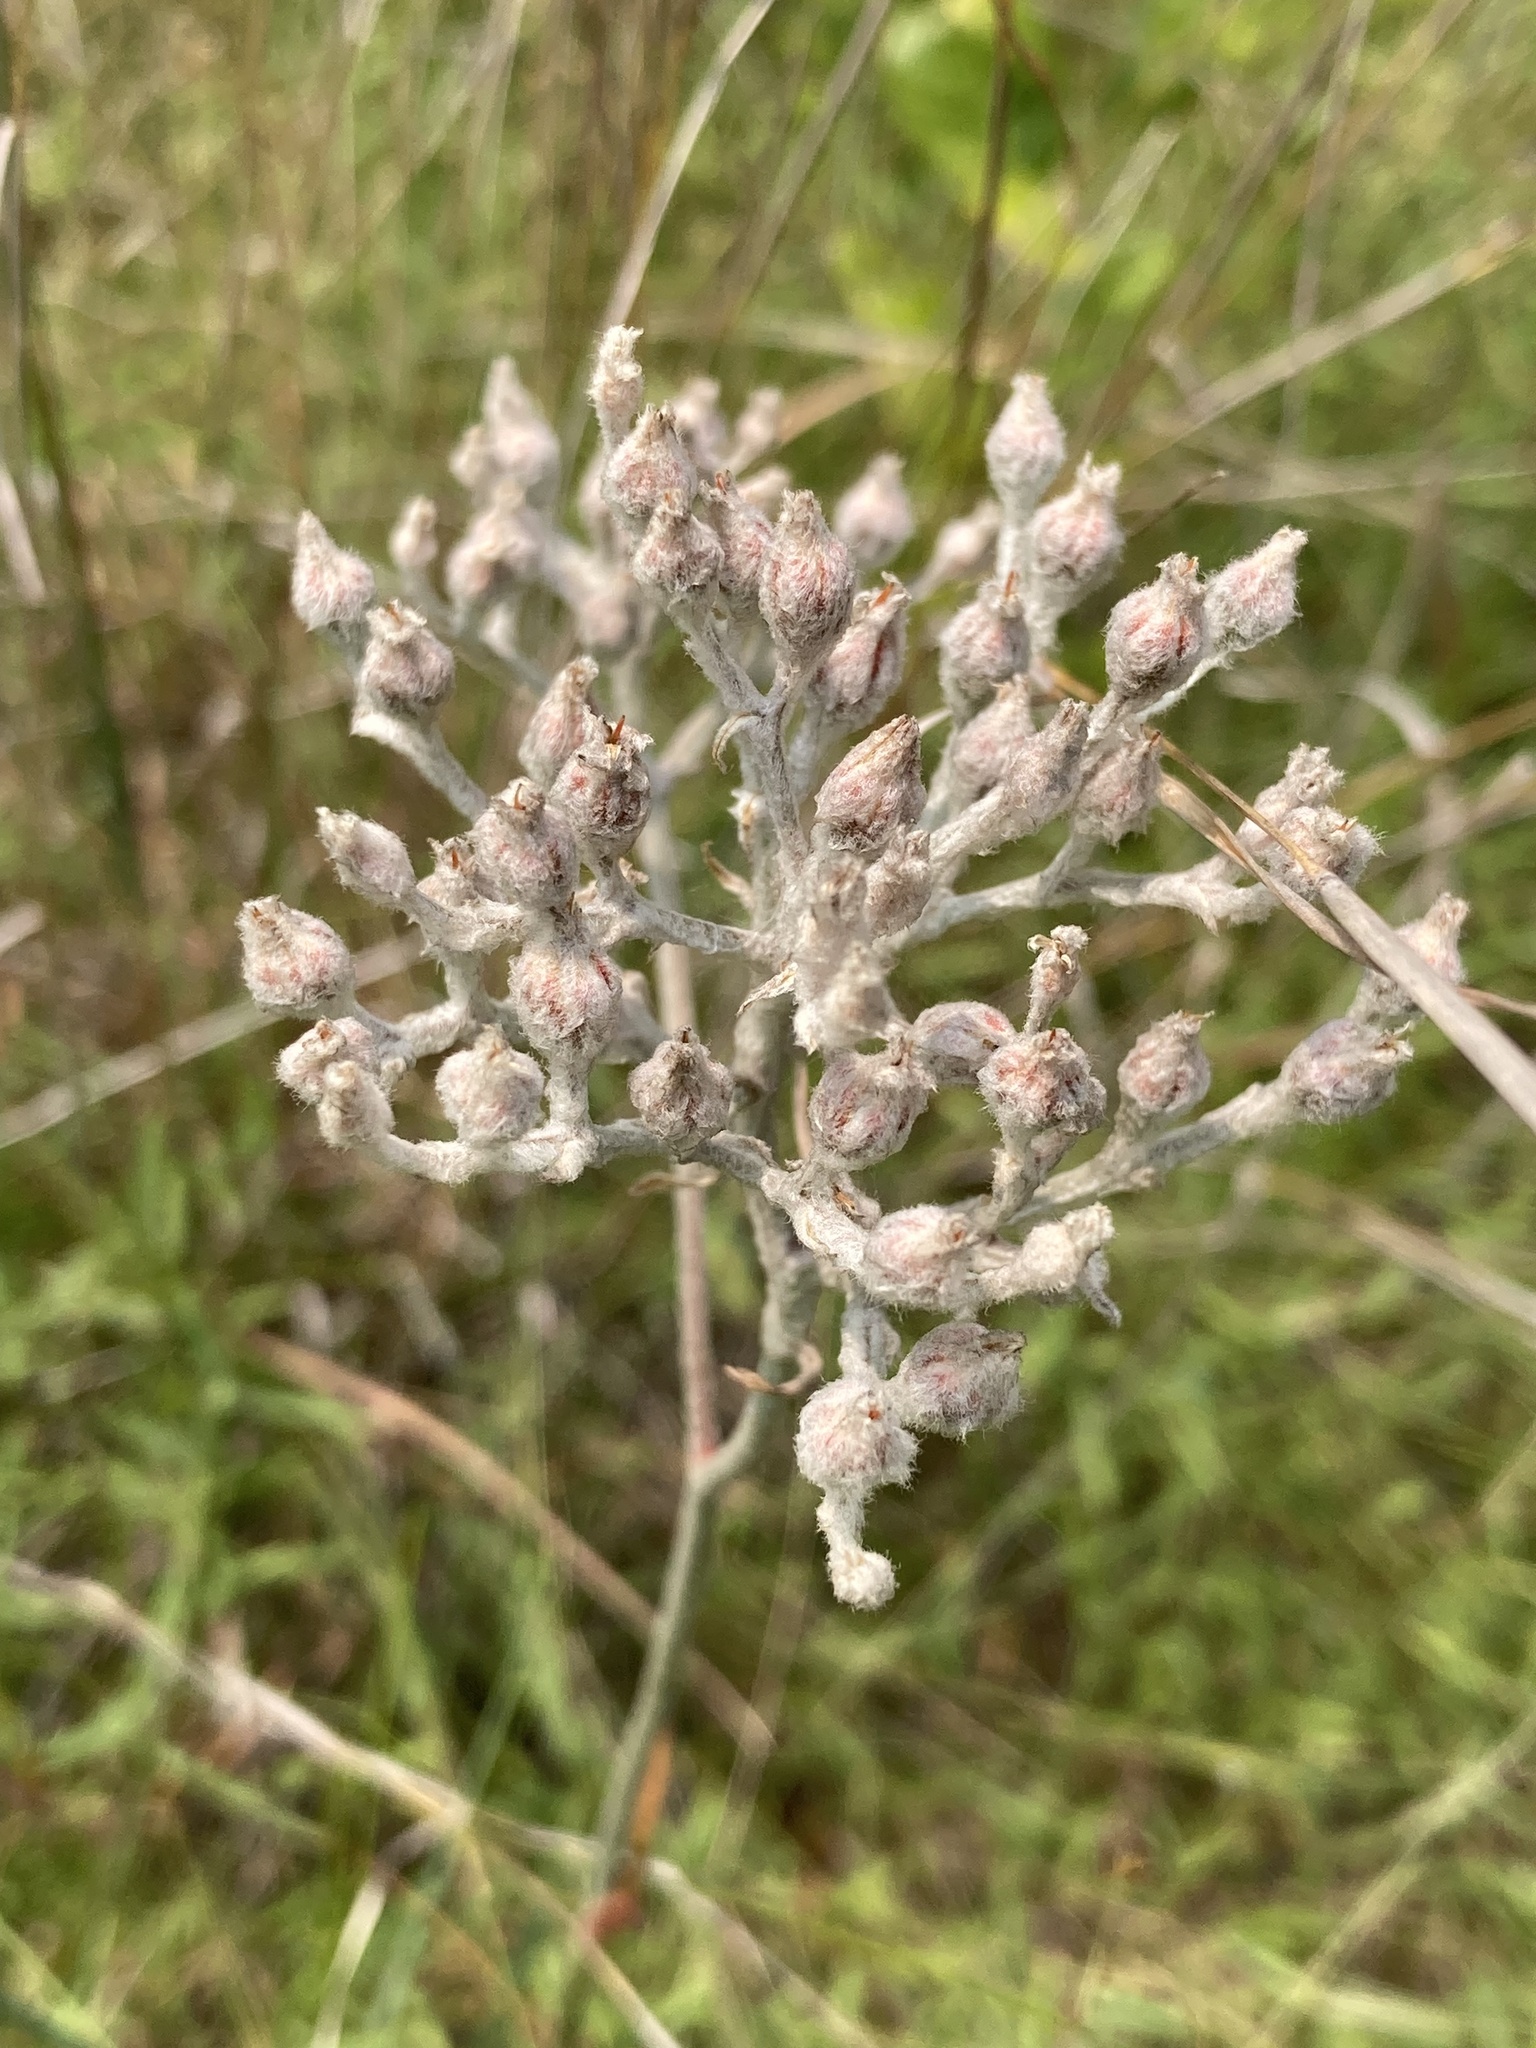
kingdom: Plantae
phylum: Tracheophyta
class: Liliopsida
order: Dioscoreales
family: Nartheciaceae
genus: Lophiola
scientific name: Lophiola aurea
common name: Golden-crest
